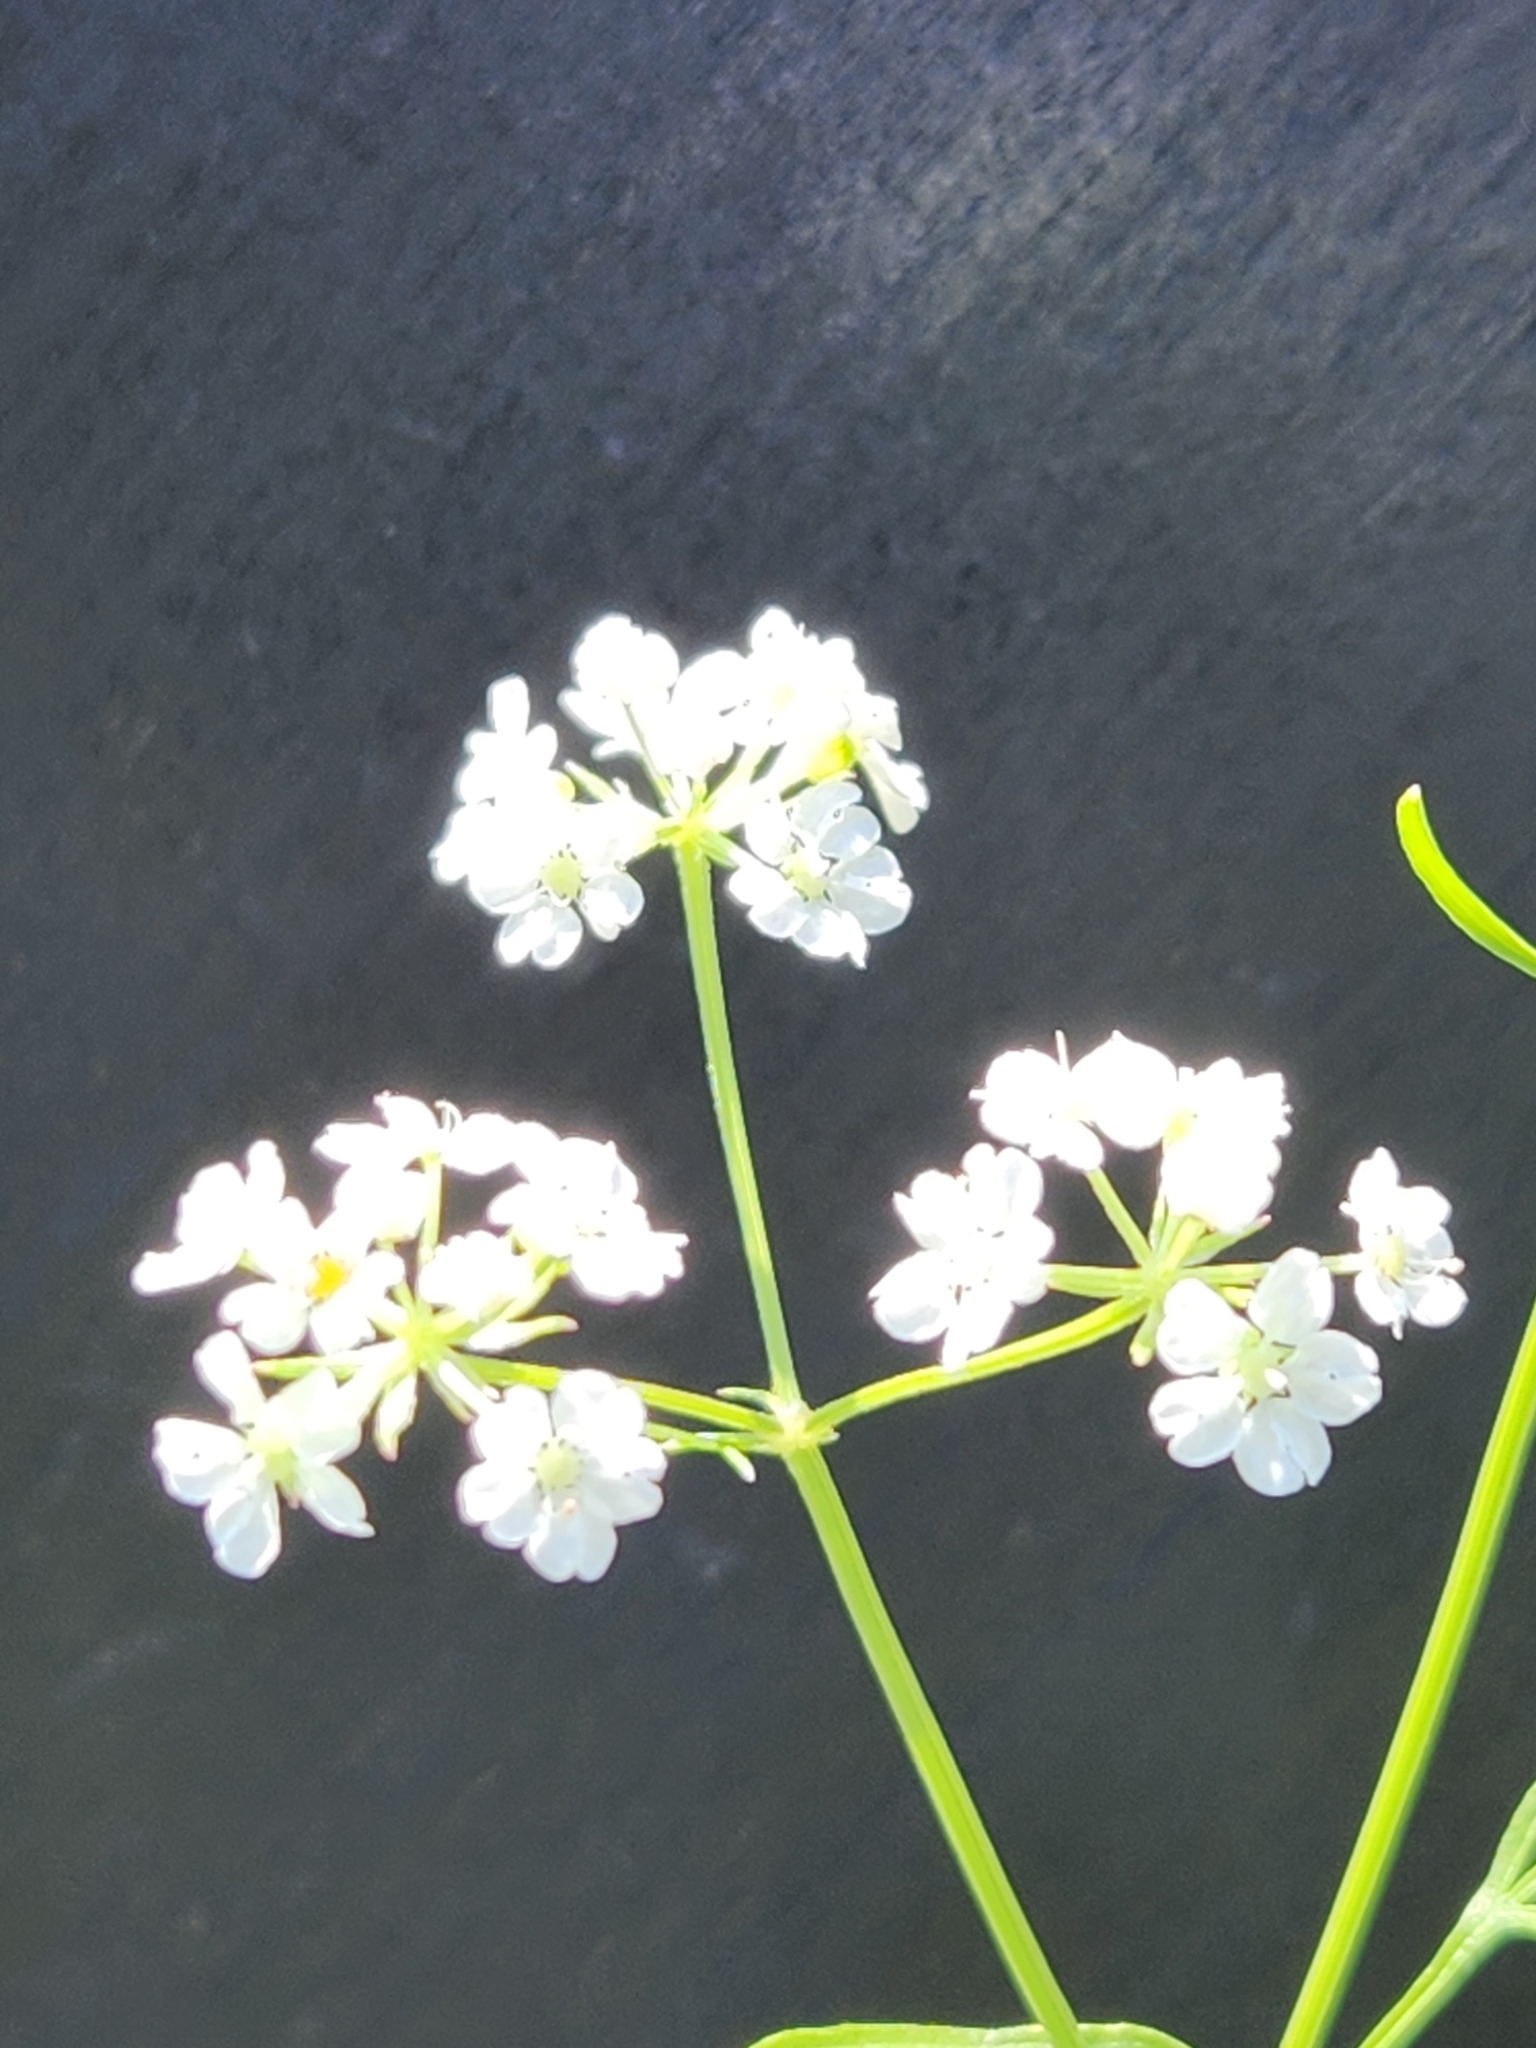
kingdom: Plantae
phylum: Tracheophyta
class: Magnoliopsida
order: Apiales
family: Apiaceae
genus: Atrema
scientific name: Atrema americanum
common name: Prairie-bishop
